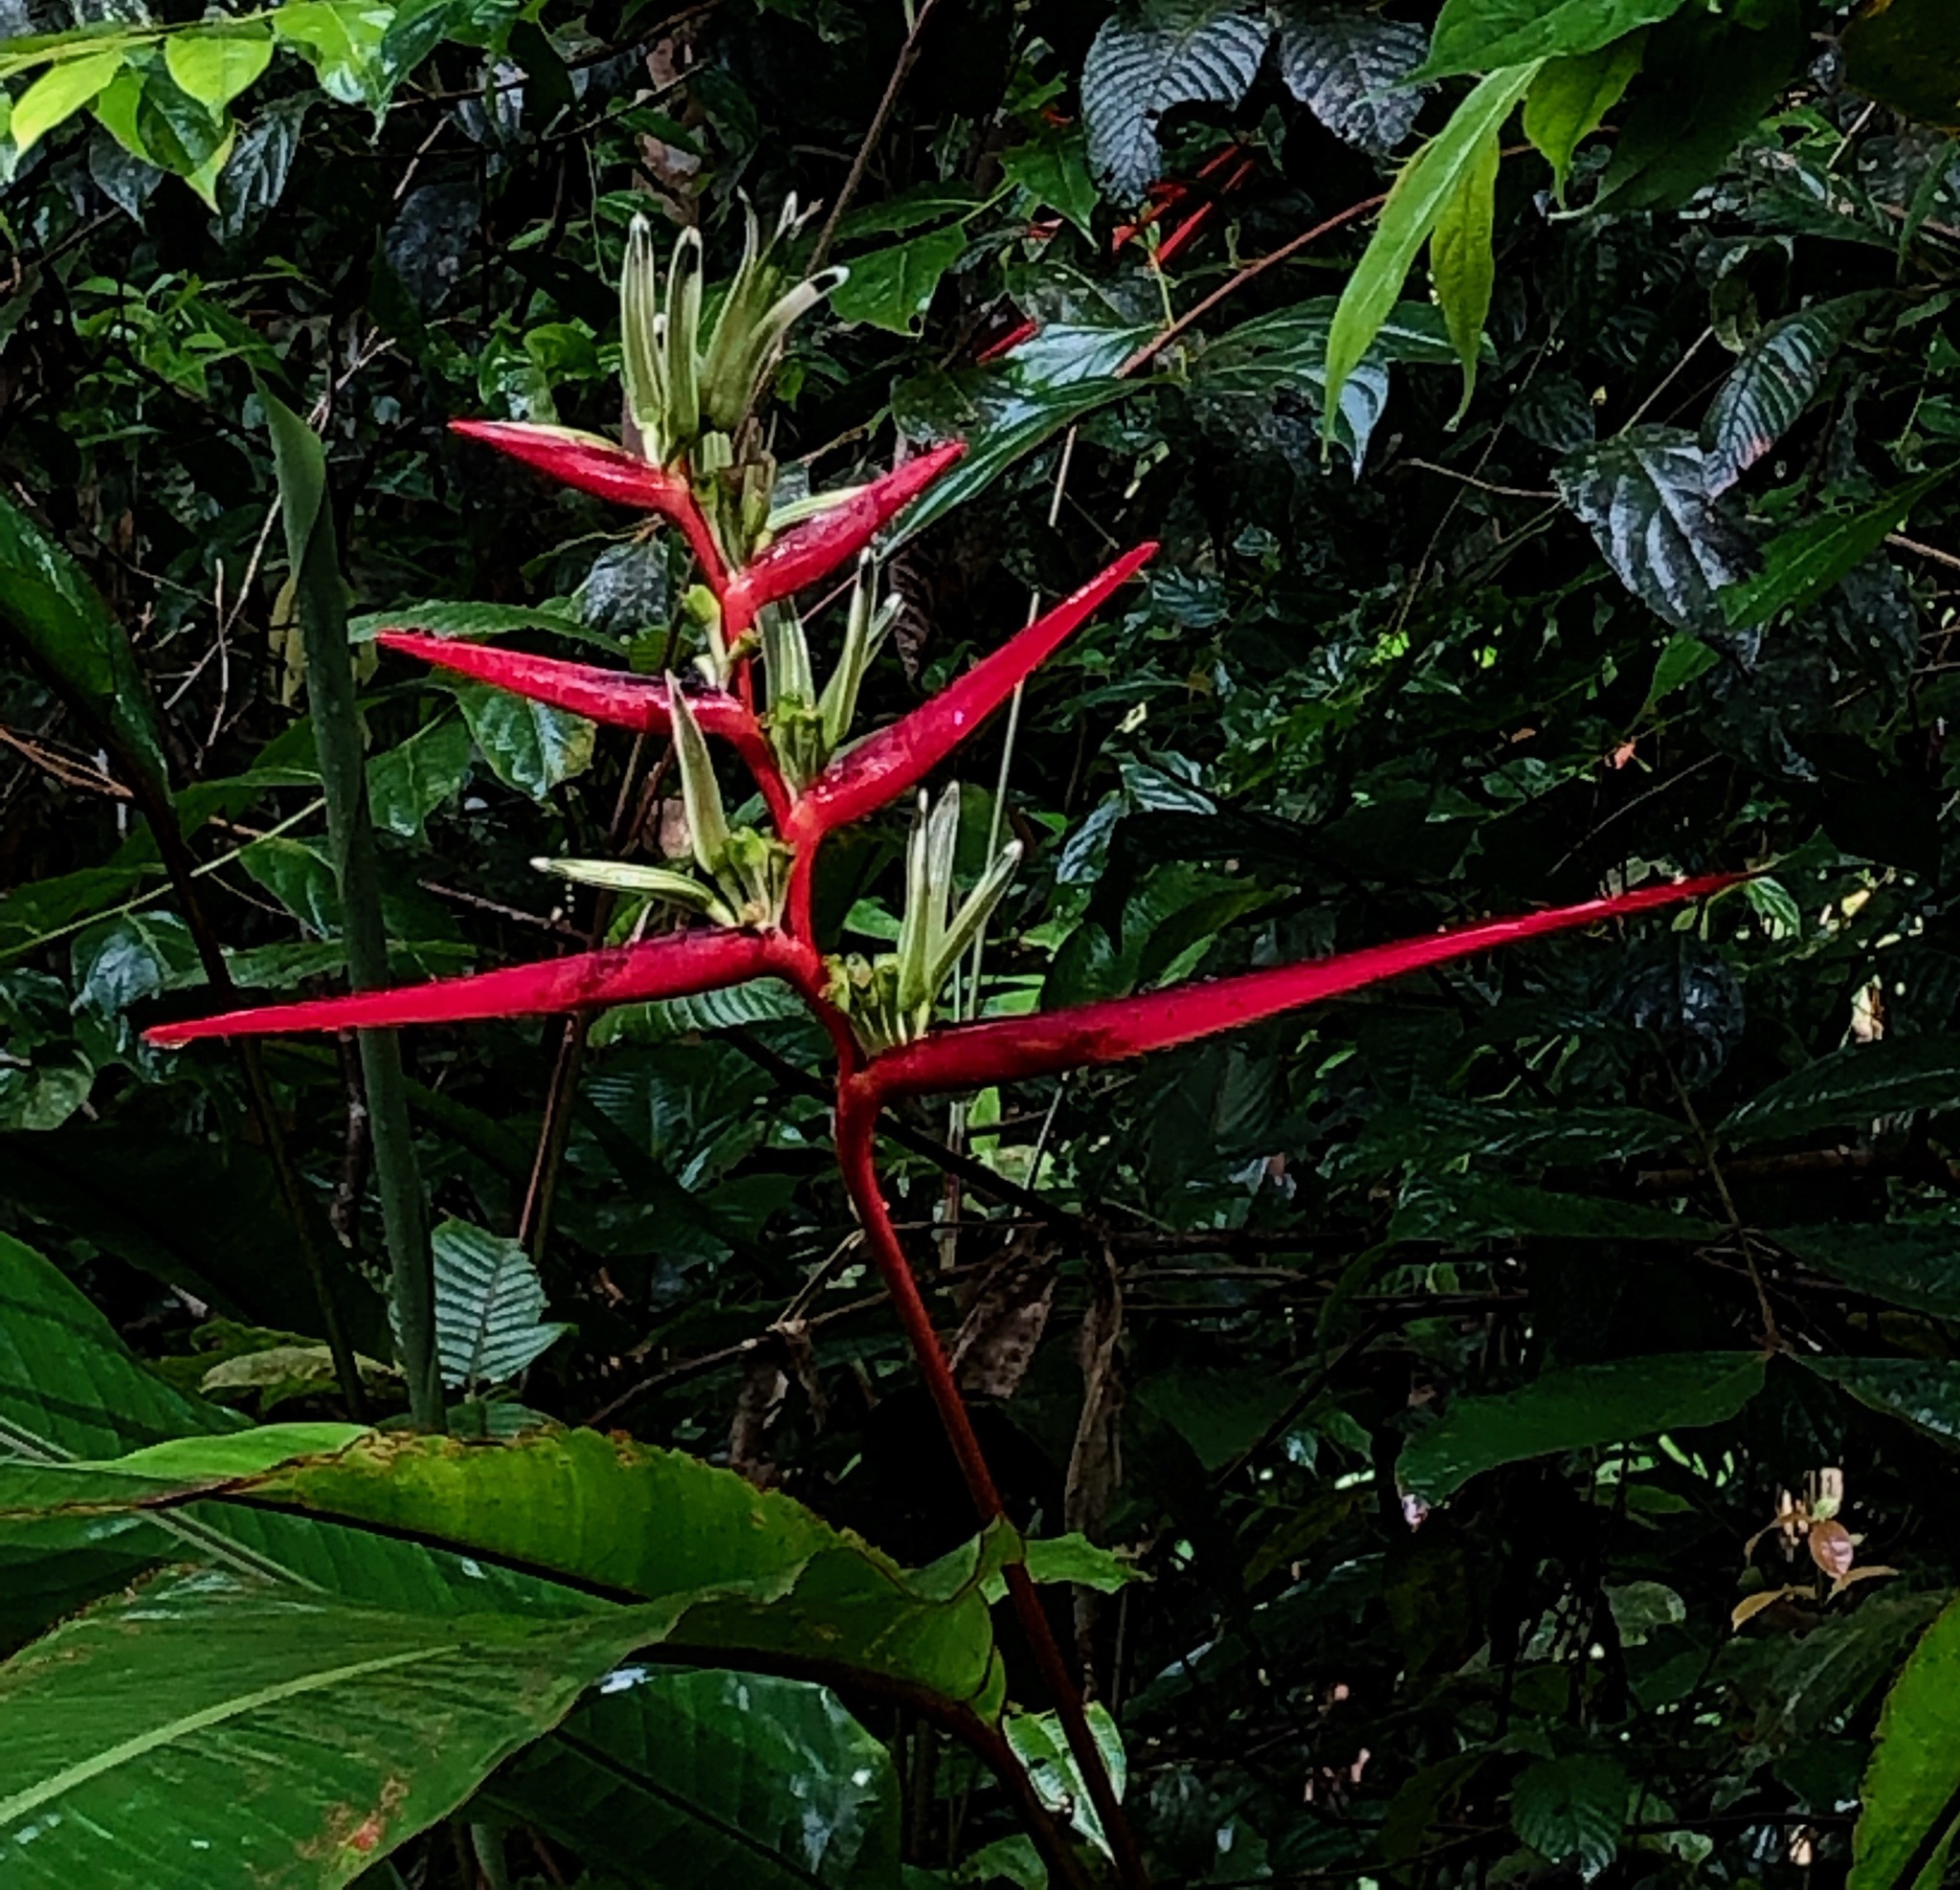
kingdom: Plantae
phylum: Tracheophyta
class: Liliopsida
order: Zingiberales
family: Heliconiaceae
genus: Heliconia
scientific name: Heliconia acuminata
